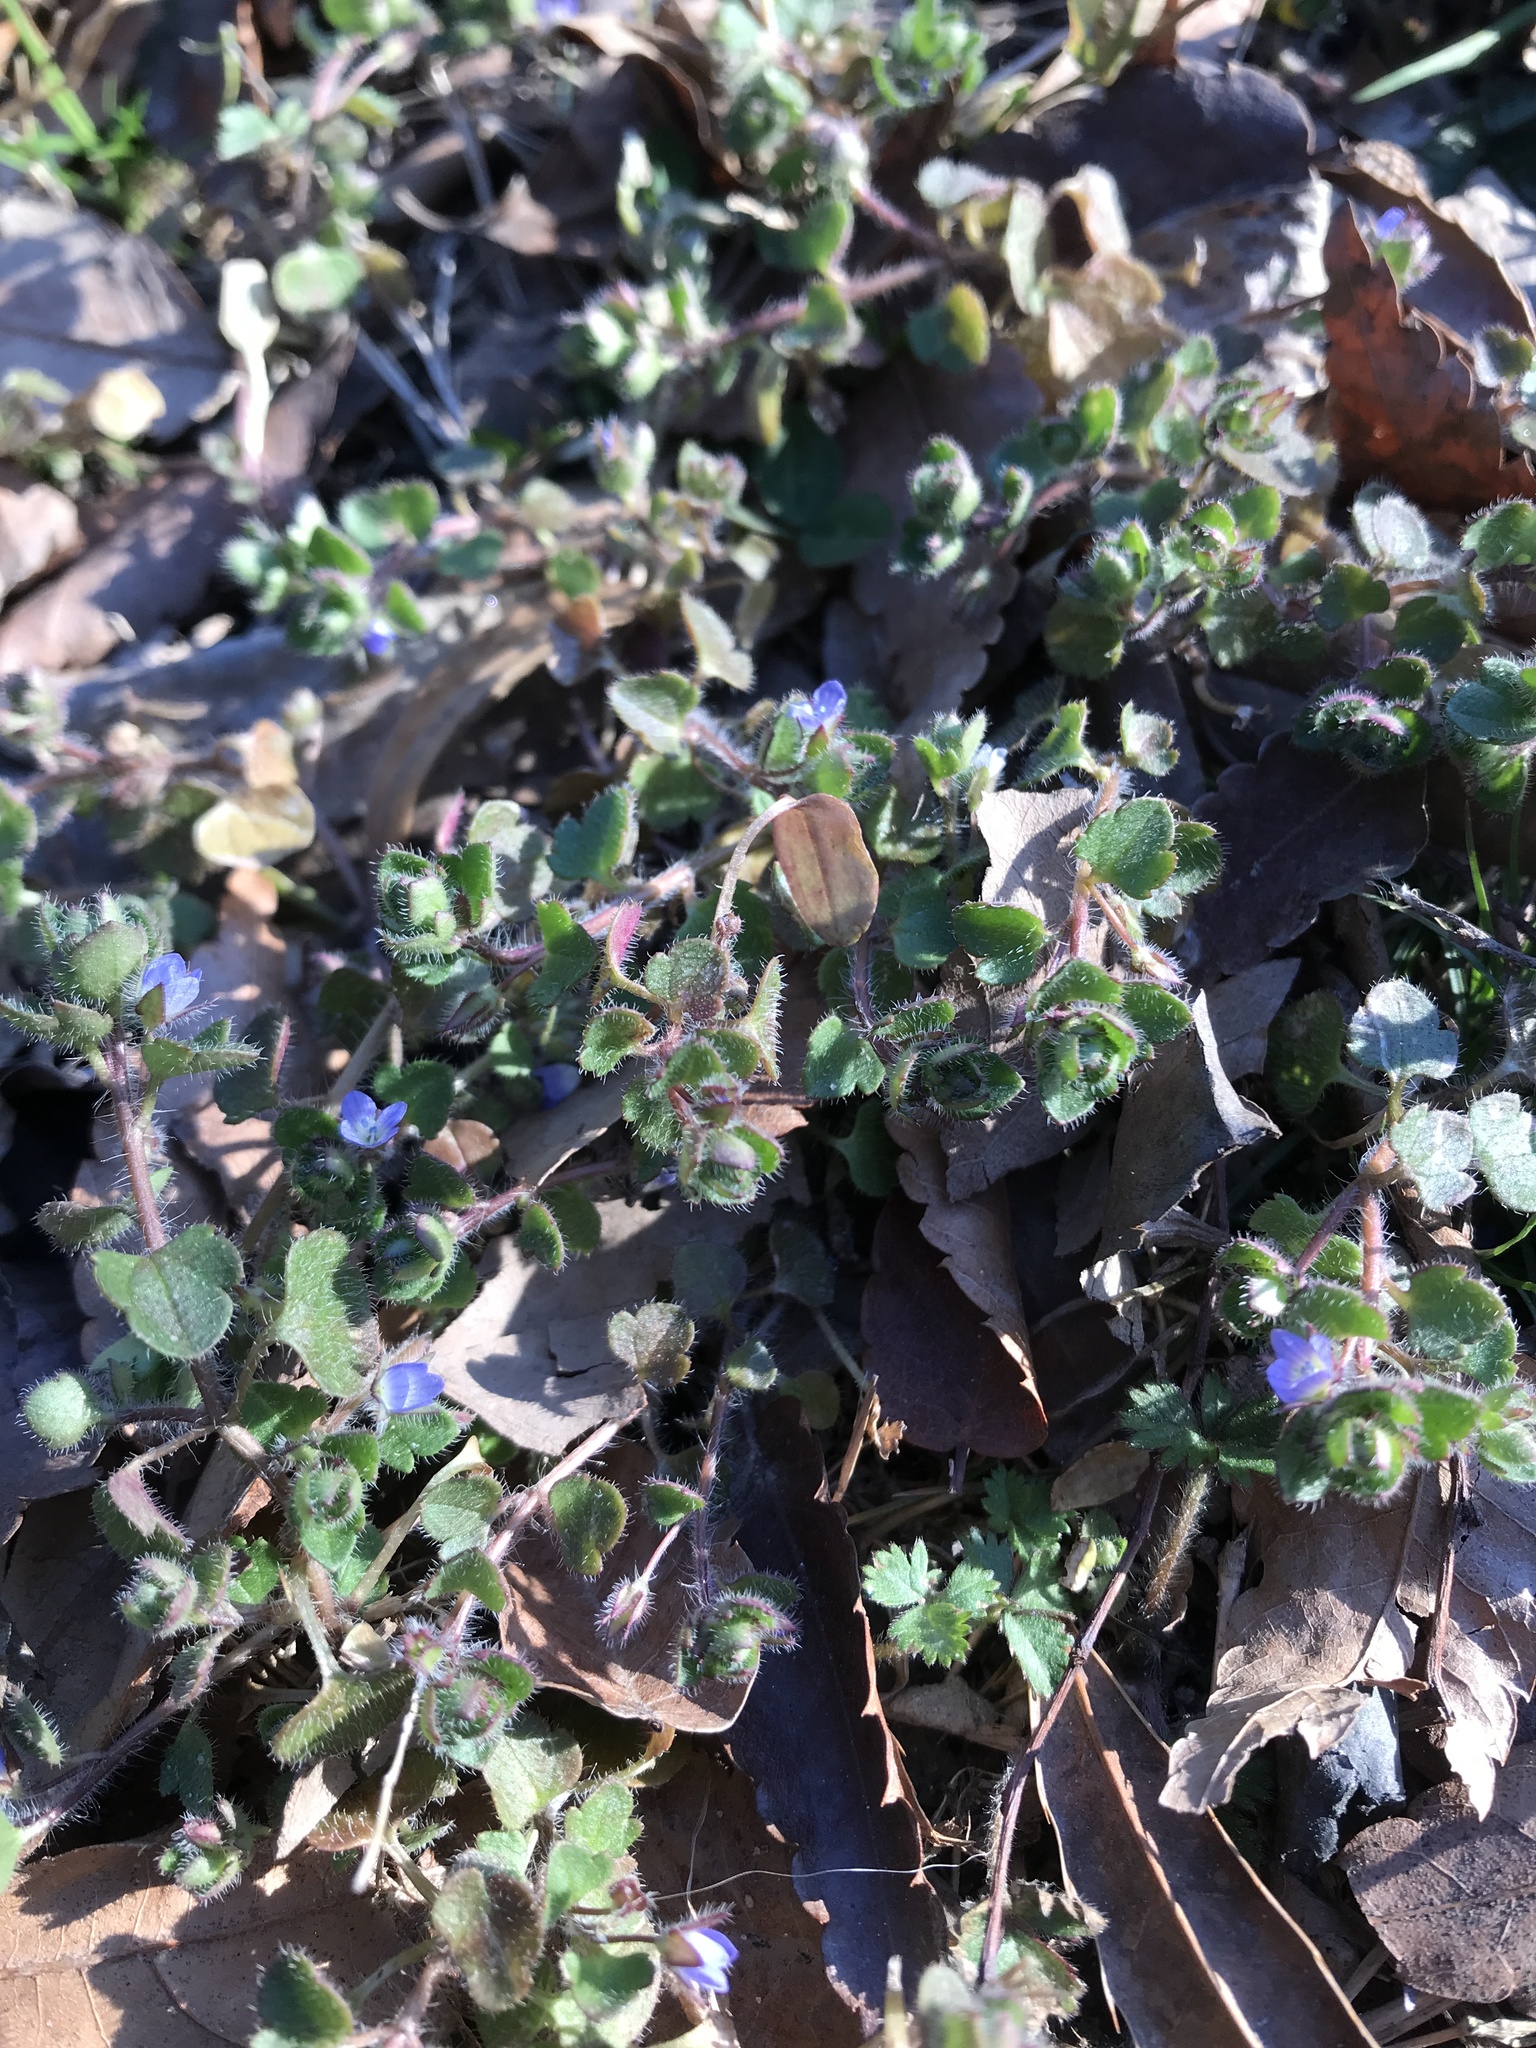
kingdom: Plantae
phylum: Tracheophyta
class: Magnoliopsida
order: Lamiales
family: Plantaginaceae
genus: Veronica
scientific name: Veronica hederifolia
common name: Ivy-leaved speedwell
